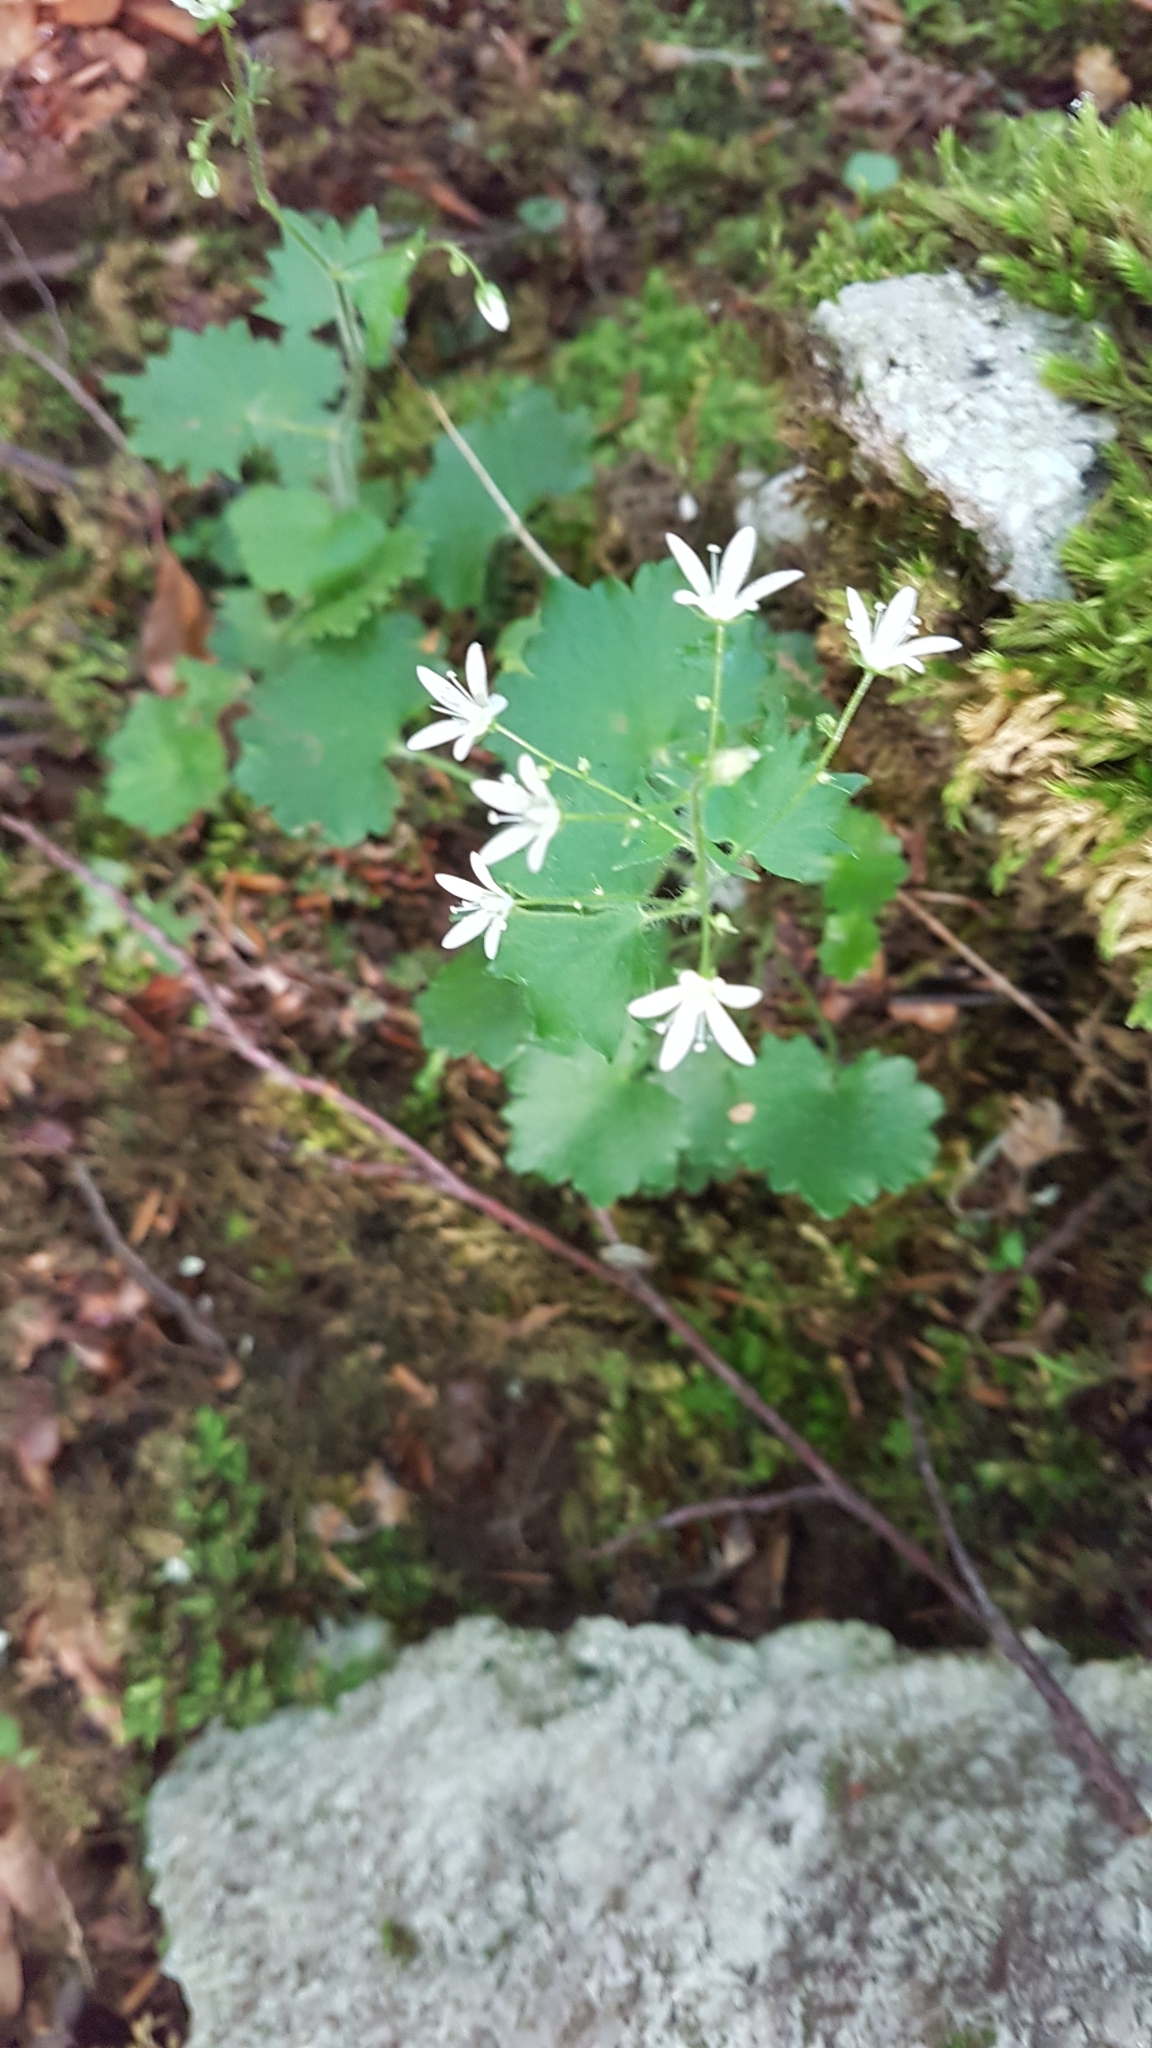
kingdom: Plantae
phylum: Tracheophyta
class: Magnoliopsida
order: Saxifragales
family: Saxifragaceae
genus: Saxifraga
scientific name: Saxifraga rotundifolia
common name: Round-leaved saxifrage
